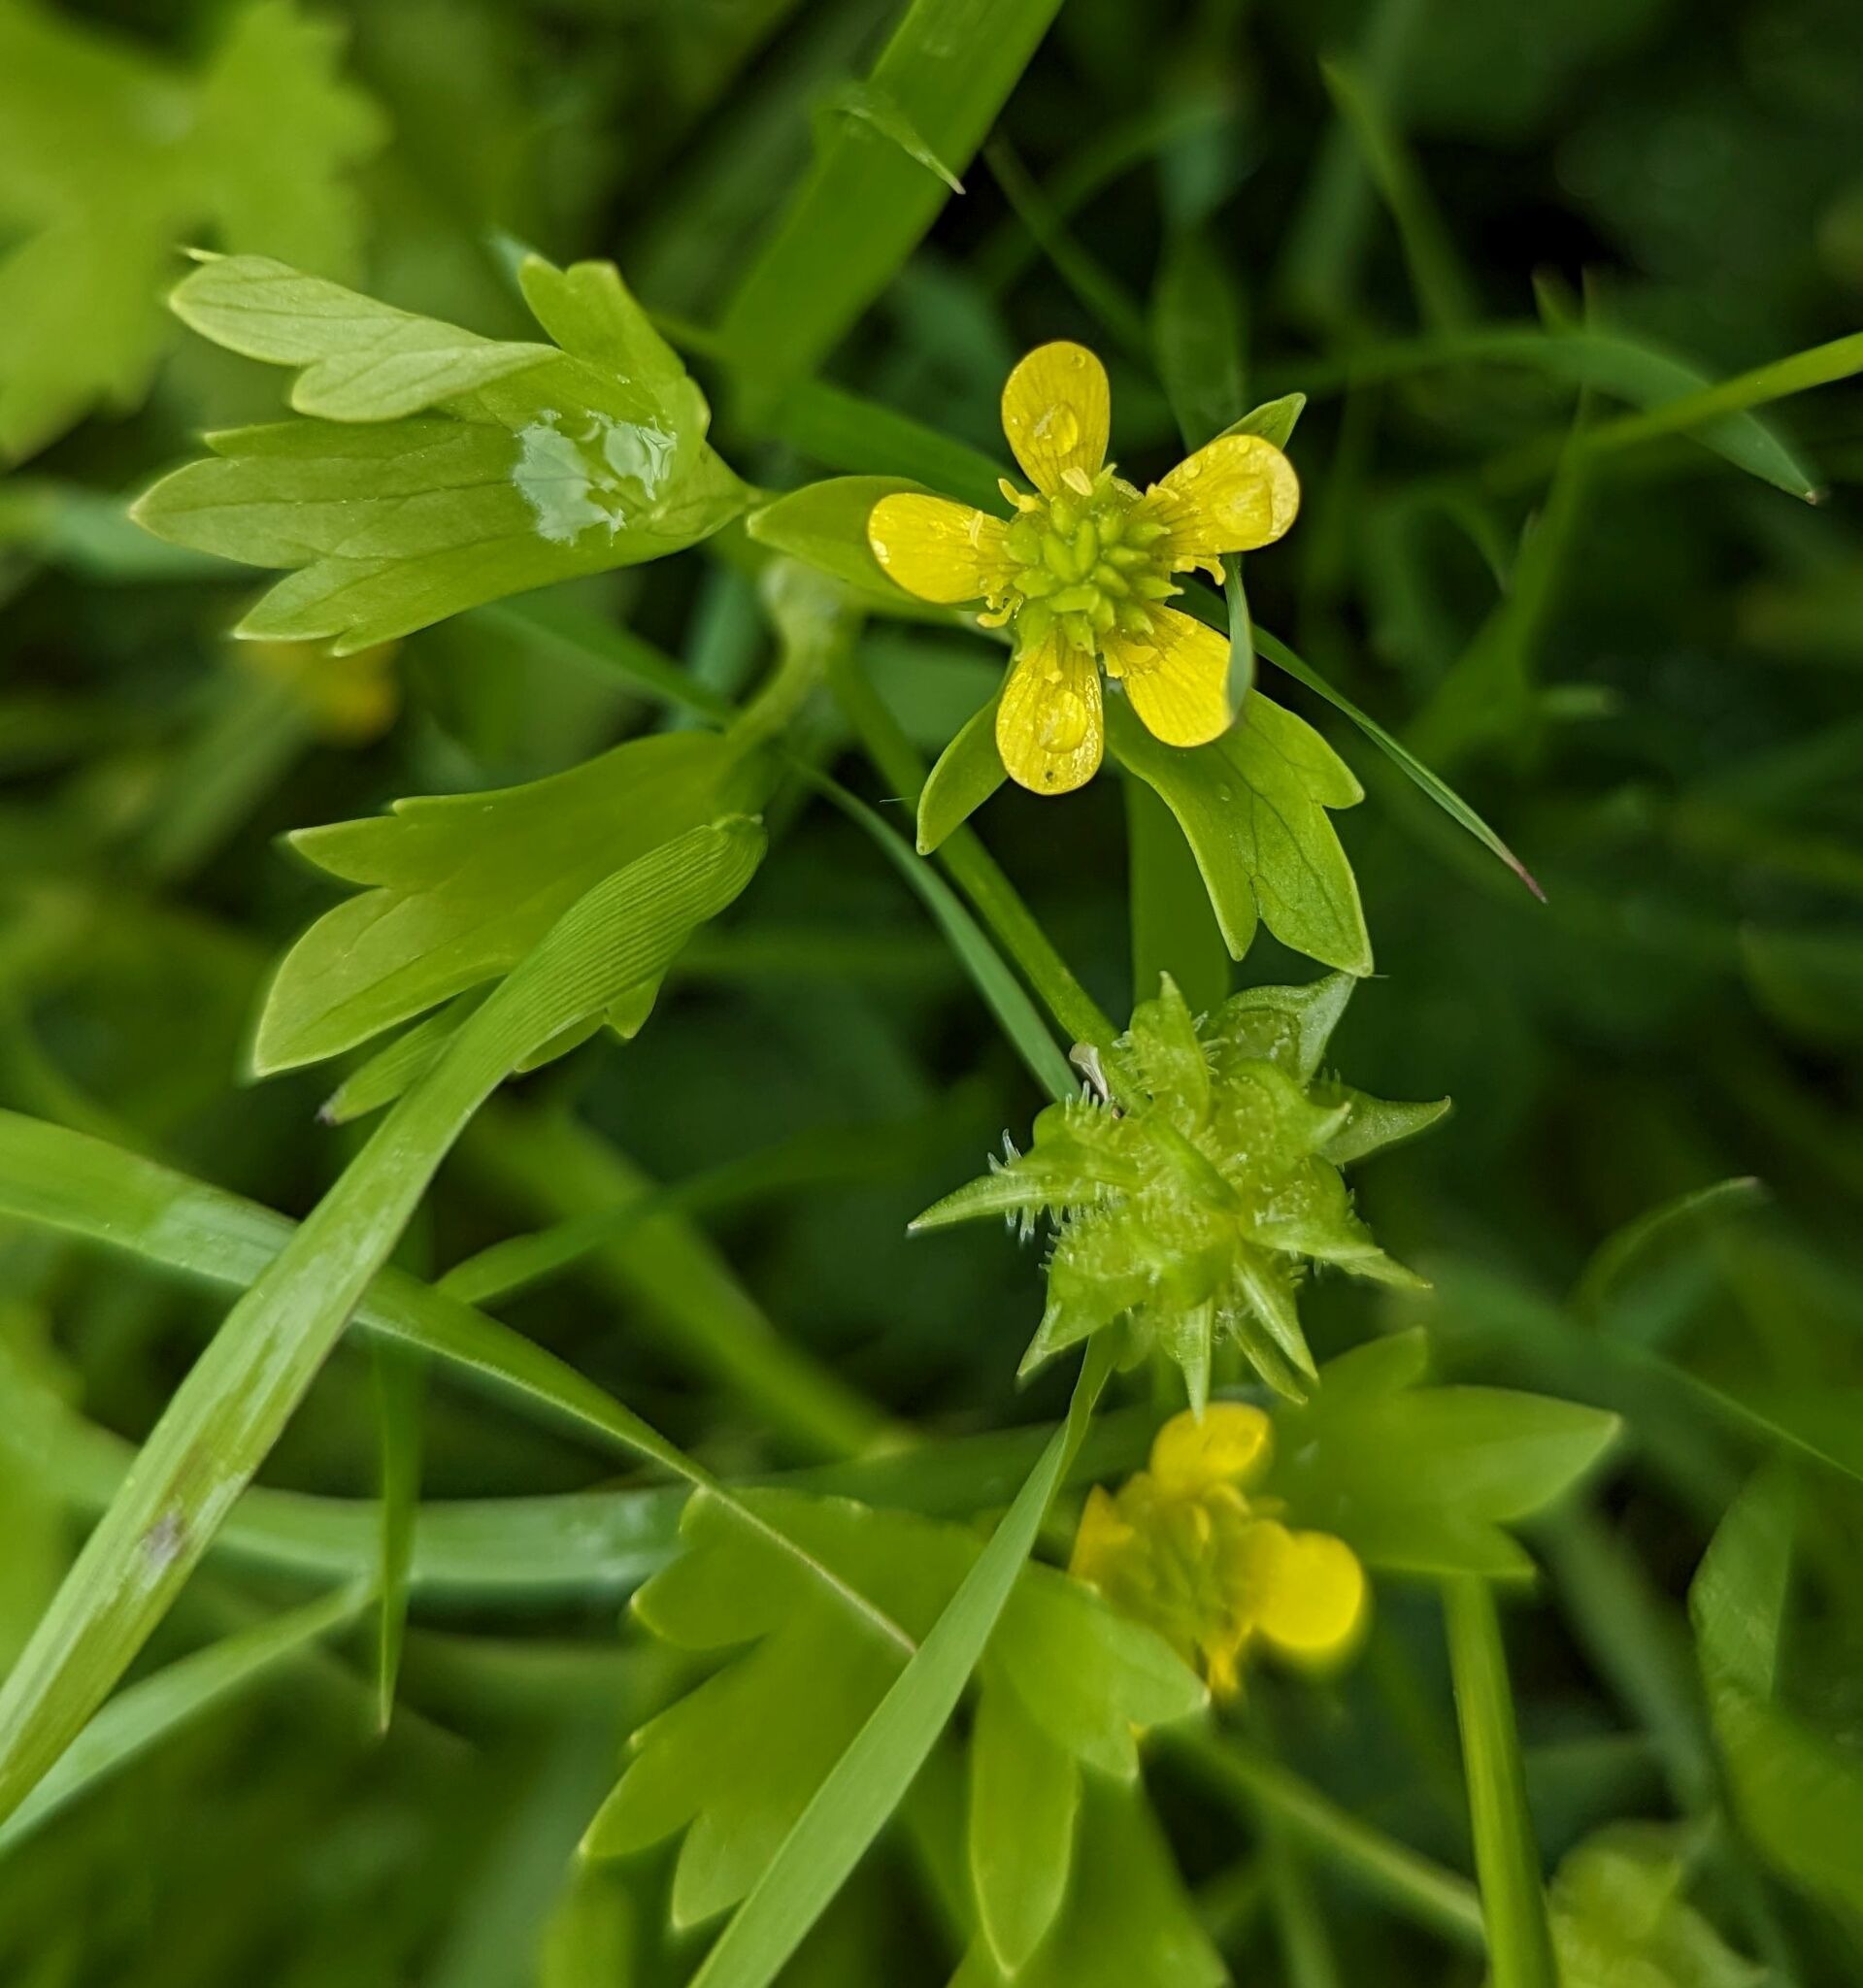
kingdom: Plantae
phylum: Tracheophyta
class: Magnoliopsida
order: Ranunculales
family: Ranunculaceae
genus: Ranunculus
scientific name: Ranunculus muricatus
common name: Rough-fruited buttercup
